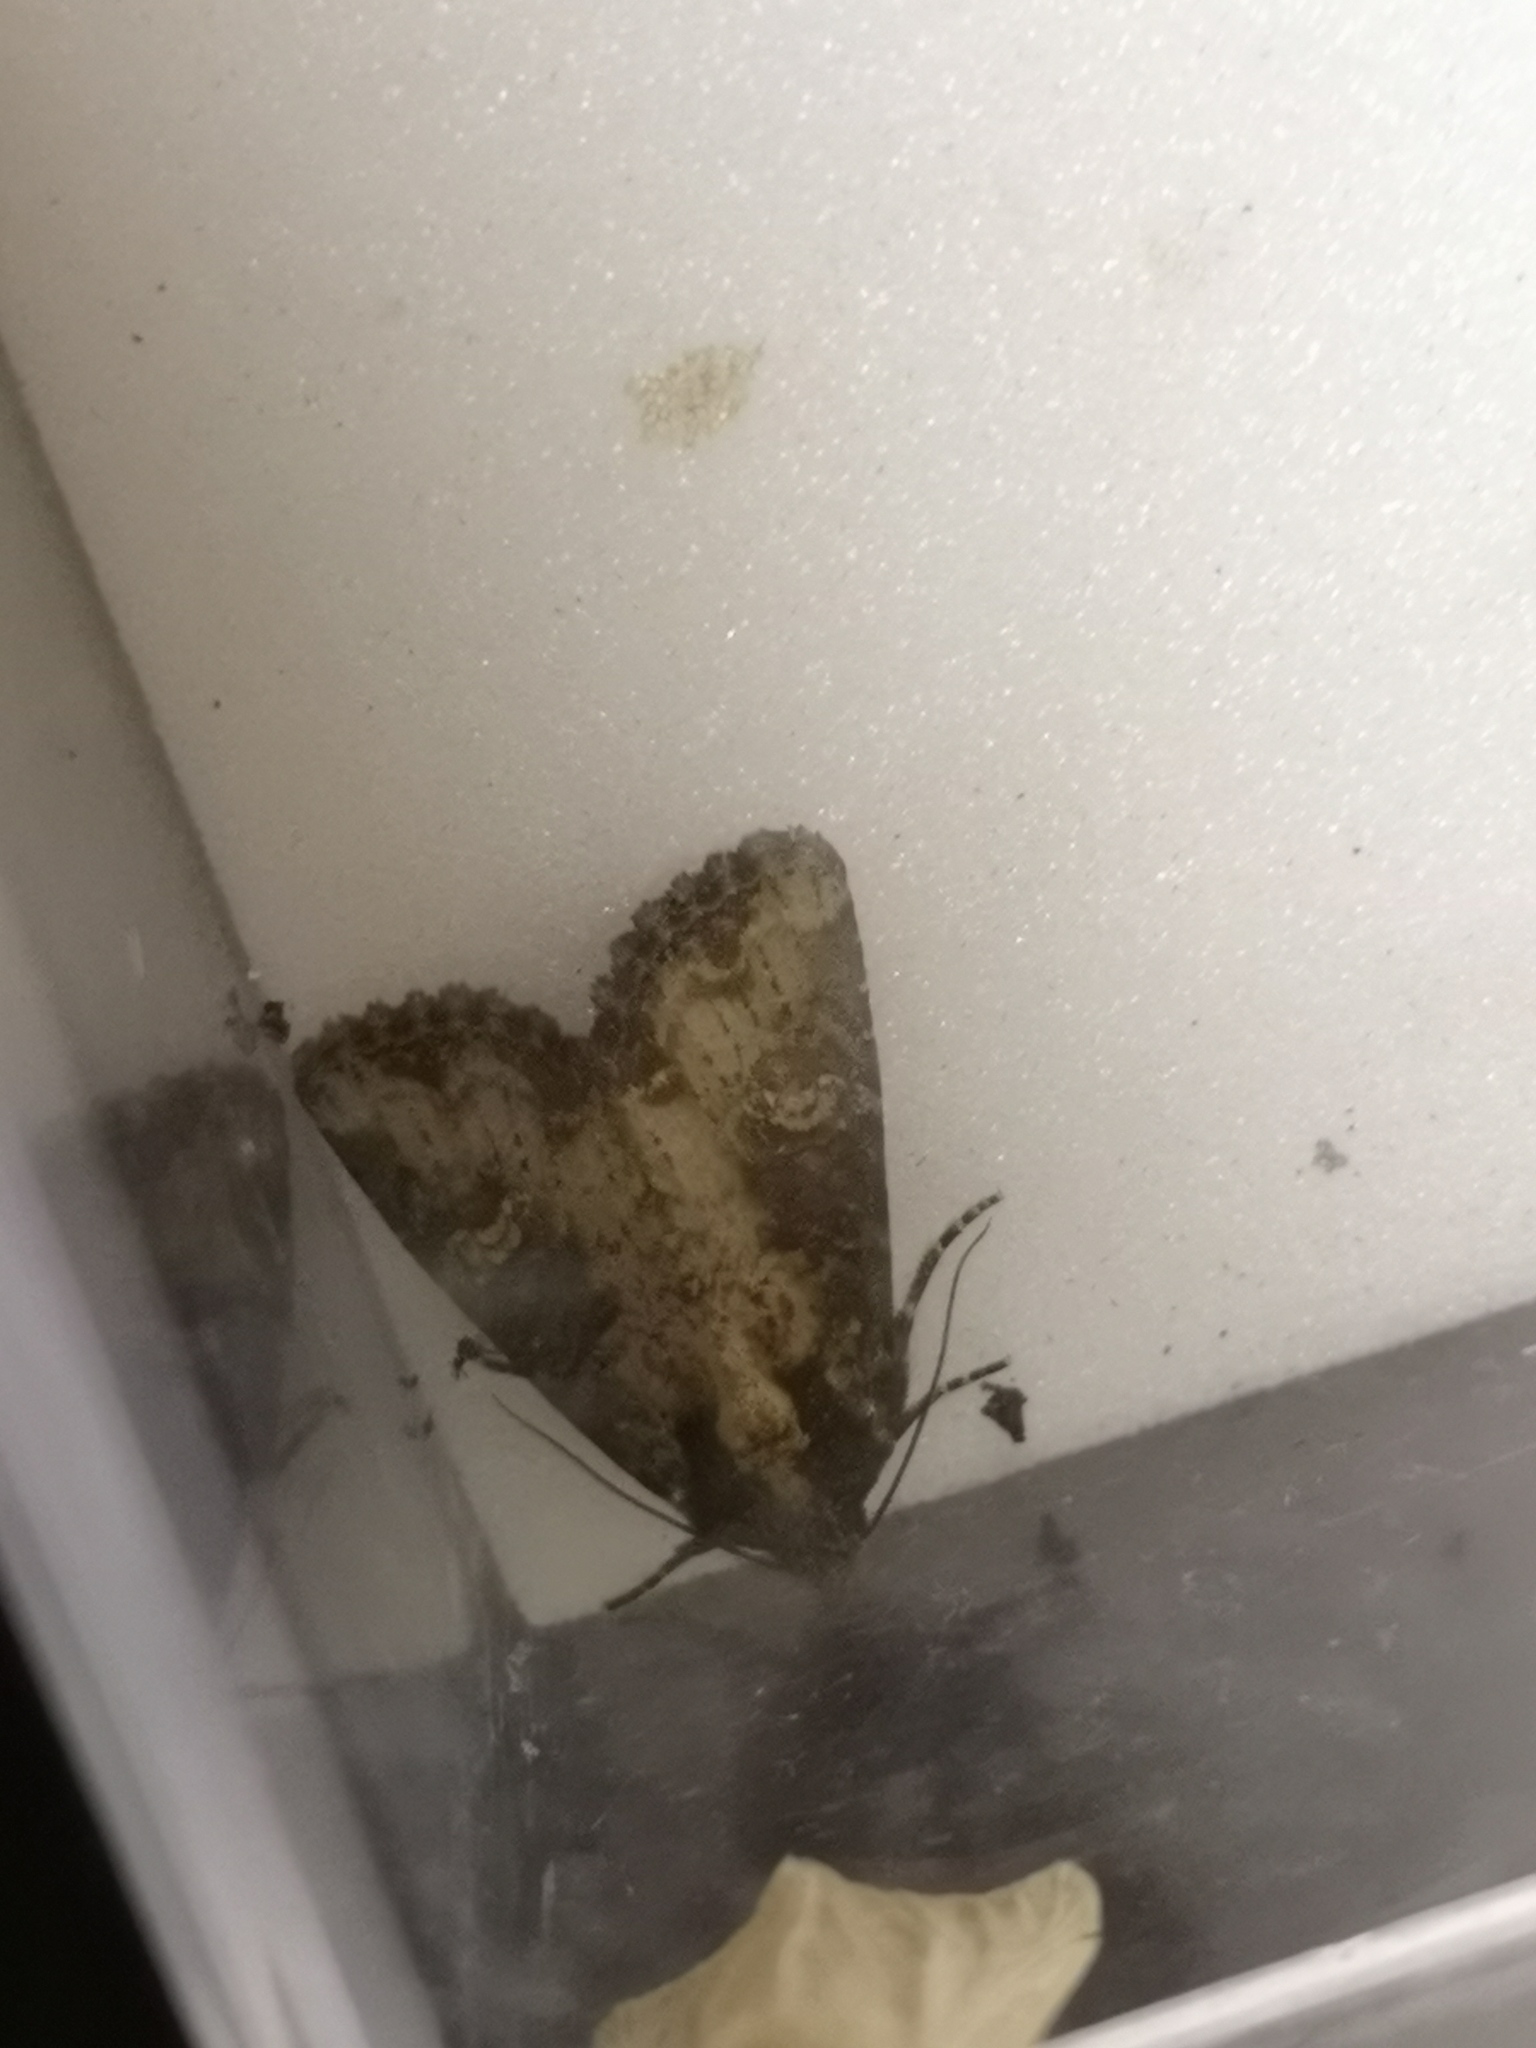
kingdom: Animalia
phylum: Arthropoda
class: Insecta
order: Lepidoptera
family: Noctuidae
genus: Mesapamea
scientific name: Mesapamea
